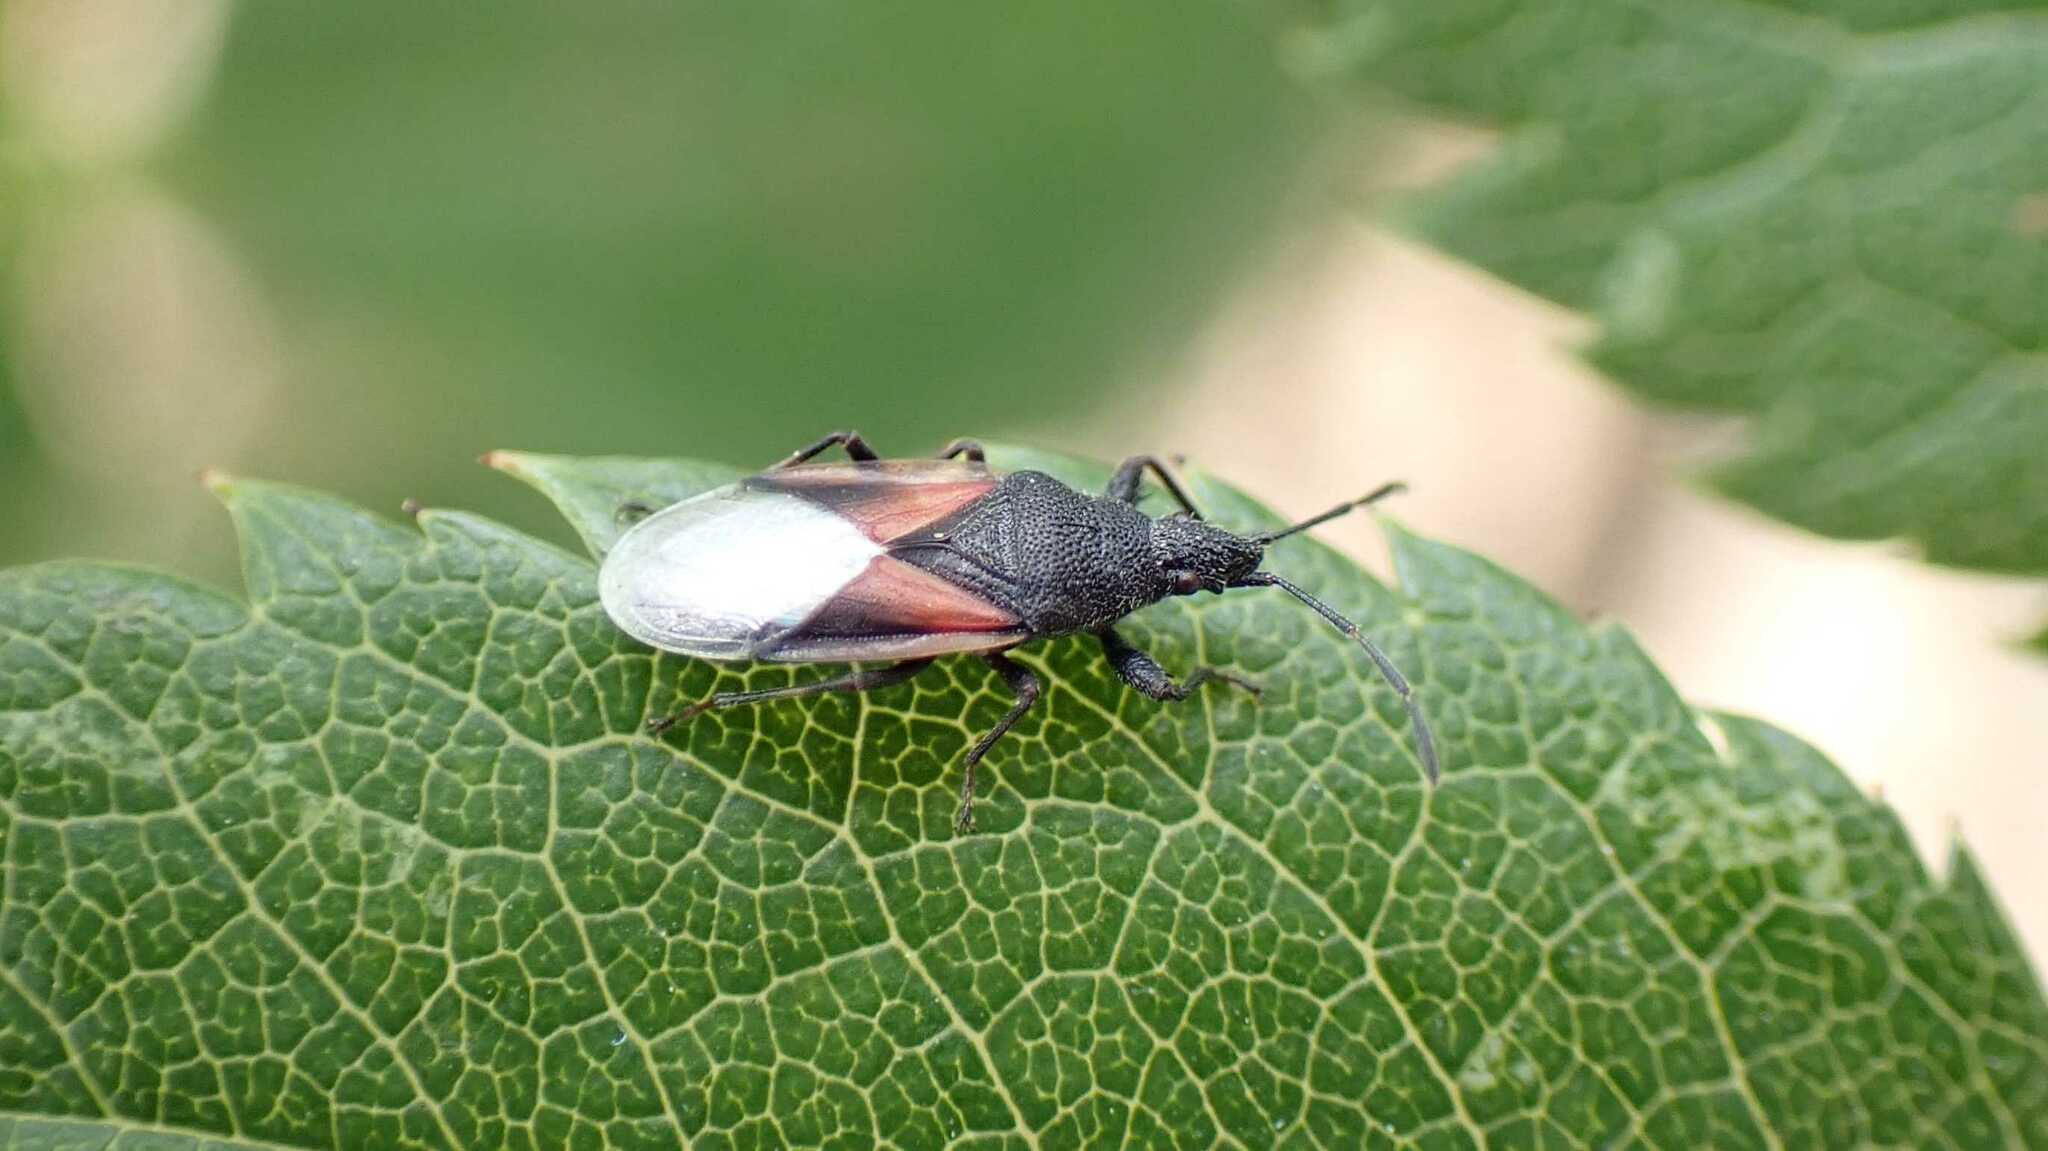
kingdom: Animalia
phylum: Arthropoda
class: Insecta
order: Hemiptera
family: Oxycarenidae
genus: Oxycarenus
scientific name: Oxycarenus lavaterae
